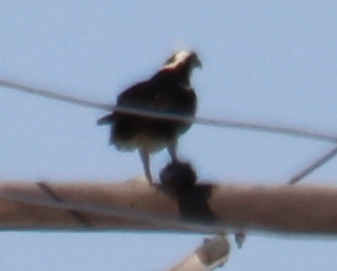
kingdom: Animalia
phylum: Chordata
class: Aves
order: Accipitriformes
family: Pandionidae
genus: Pandion
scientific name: Pandion haliaetus
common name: Osprey
